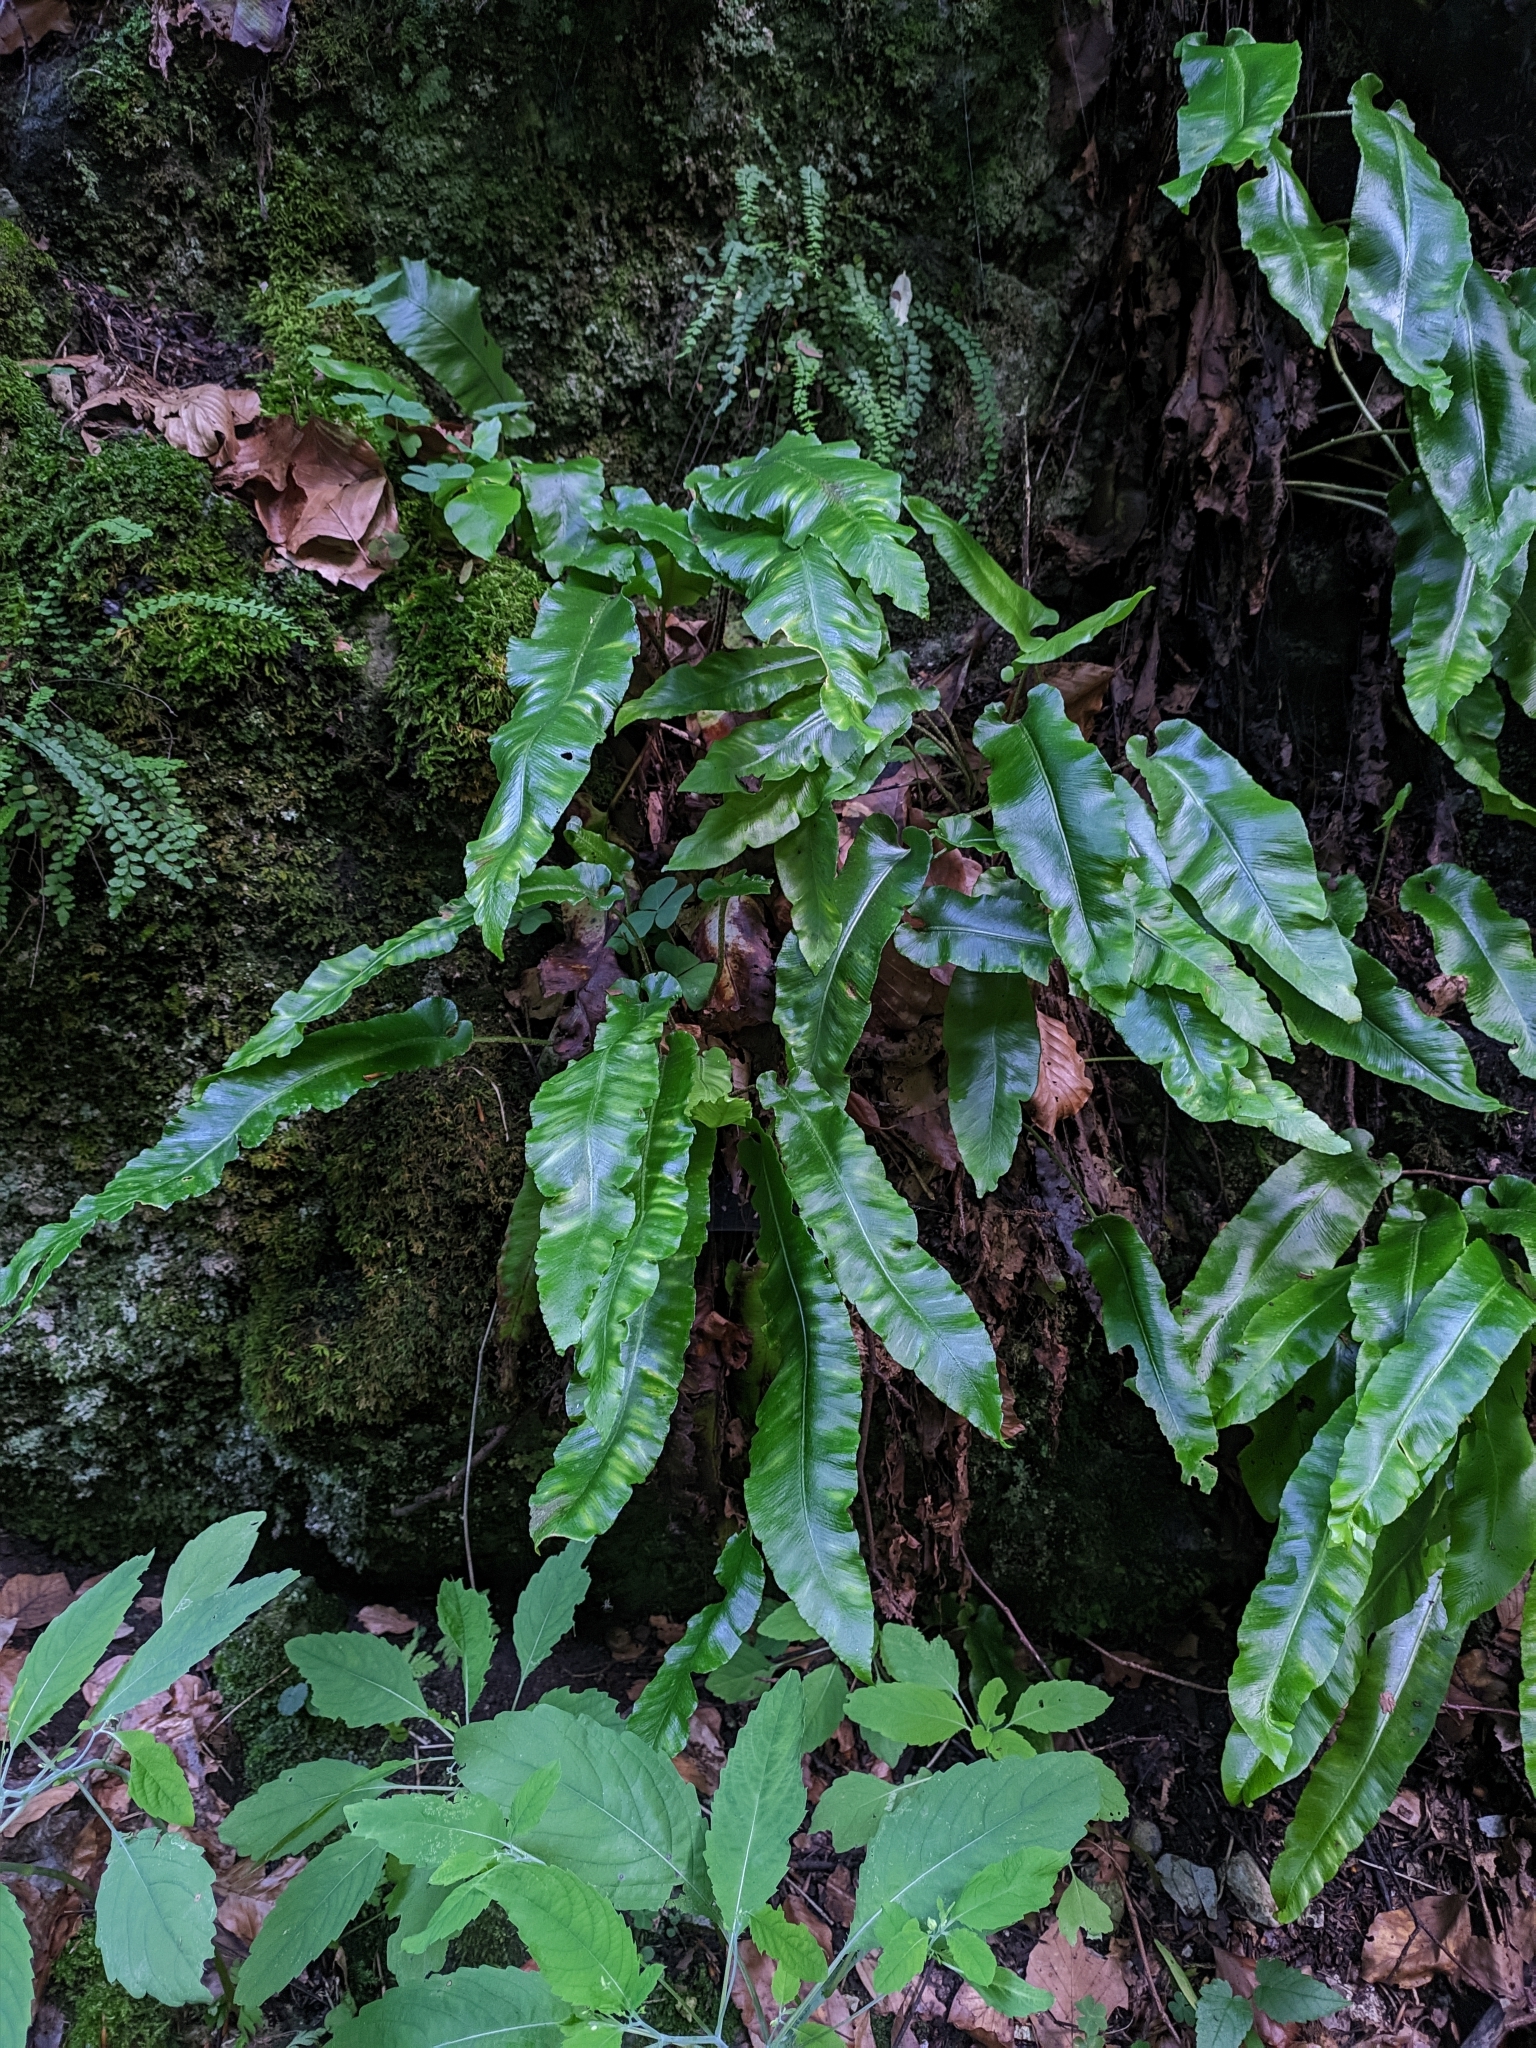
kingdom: Plantae
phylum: Tracheophyta
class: Polypodiopsida
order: Polypodiales
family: Aspleniaceae
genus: Asplenium
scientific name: Asplenium scolopendrium
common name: Hart's-tongue fern
